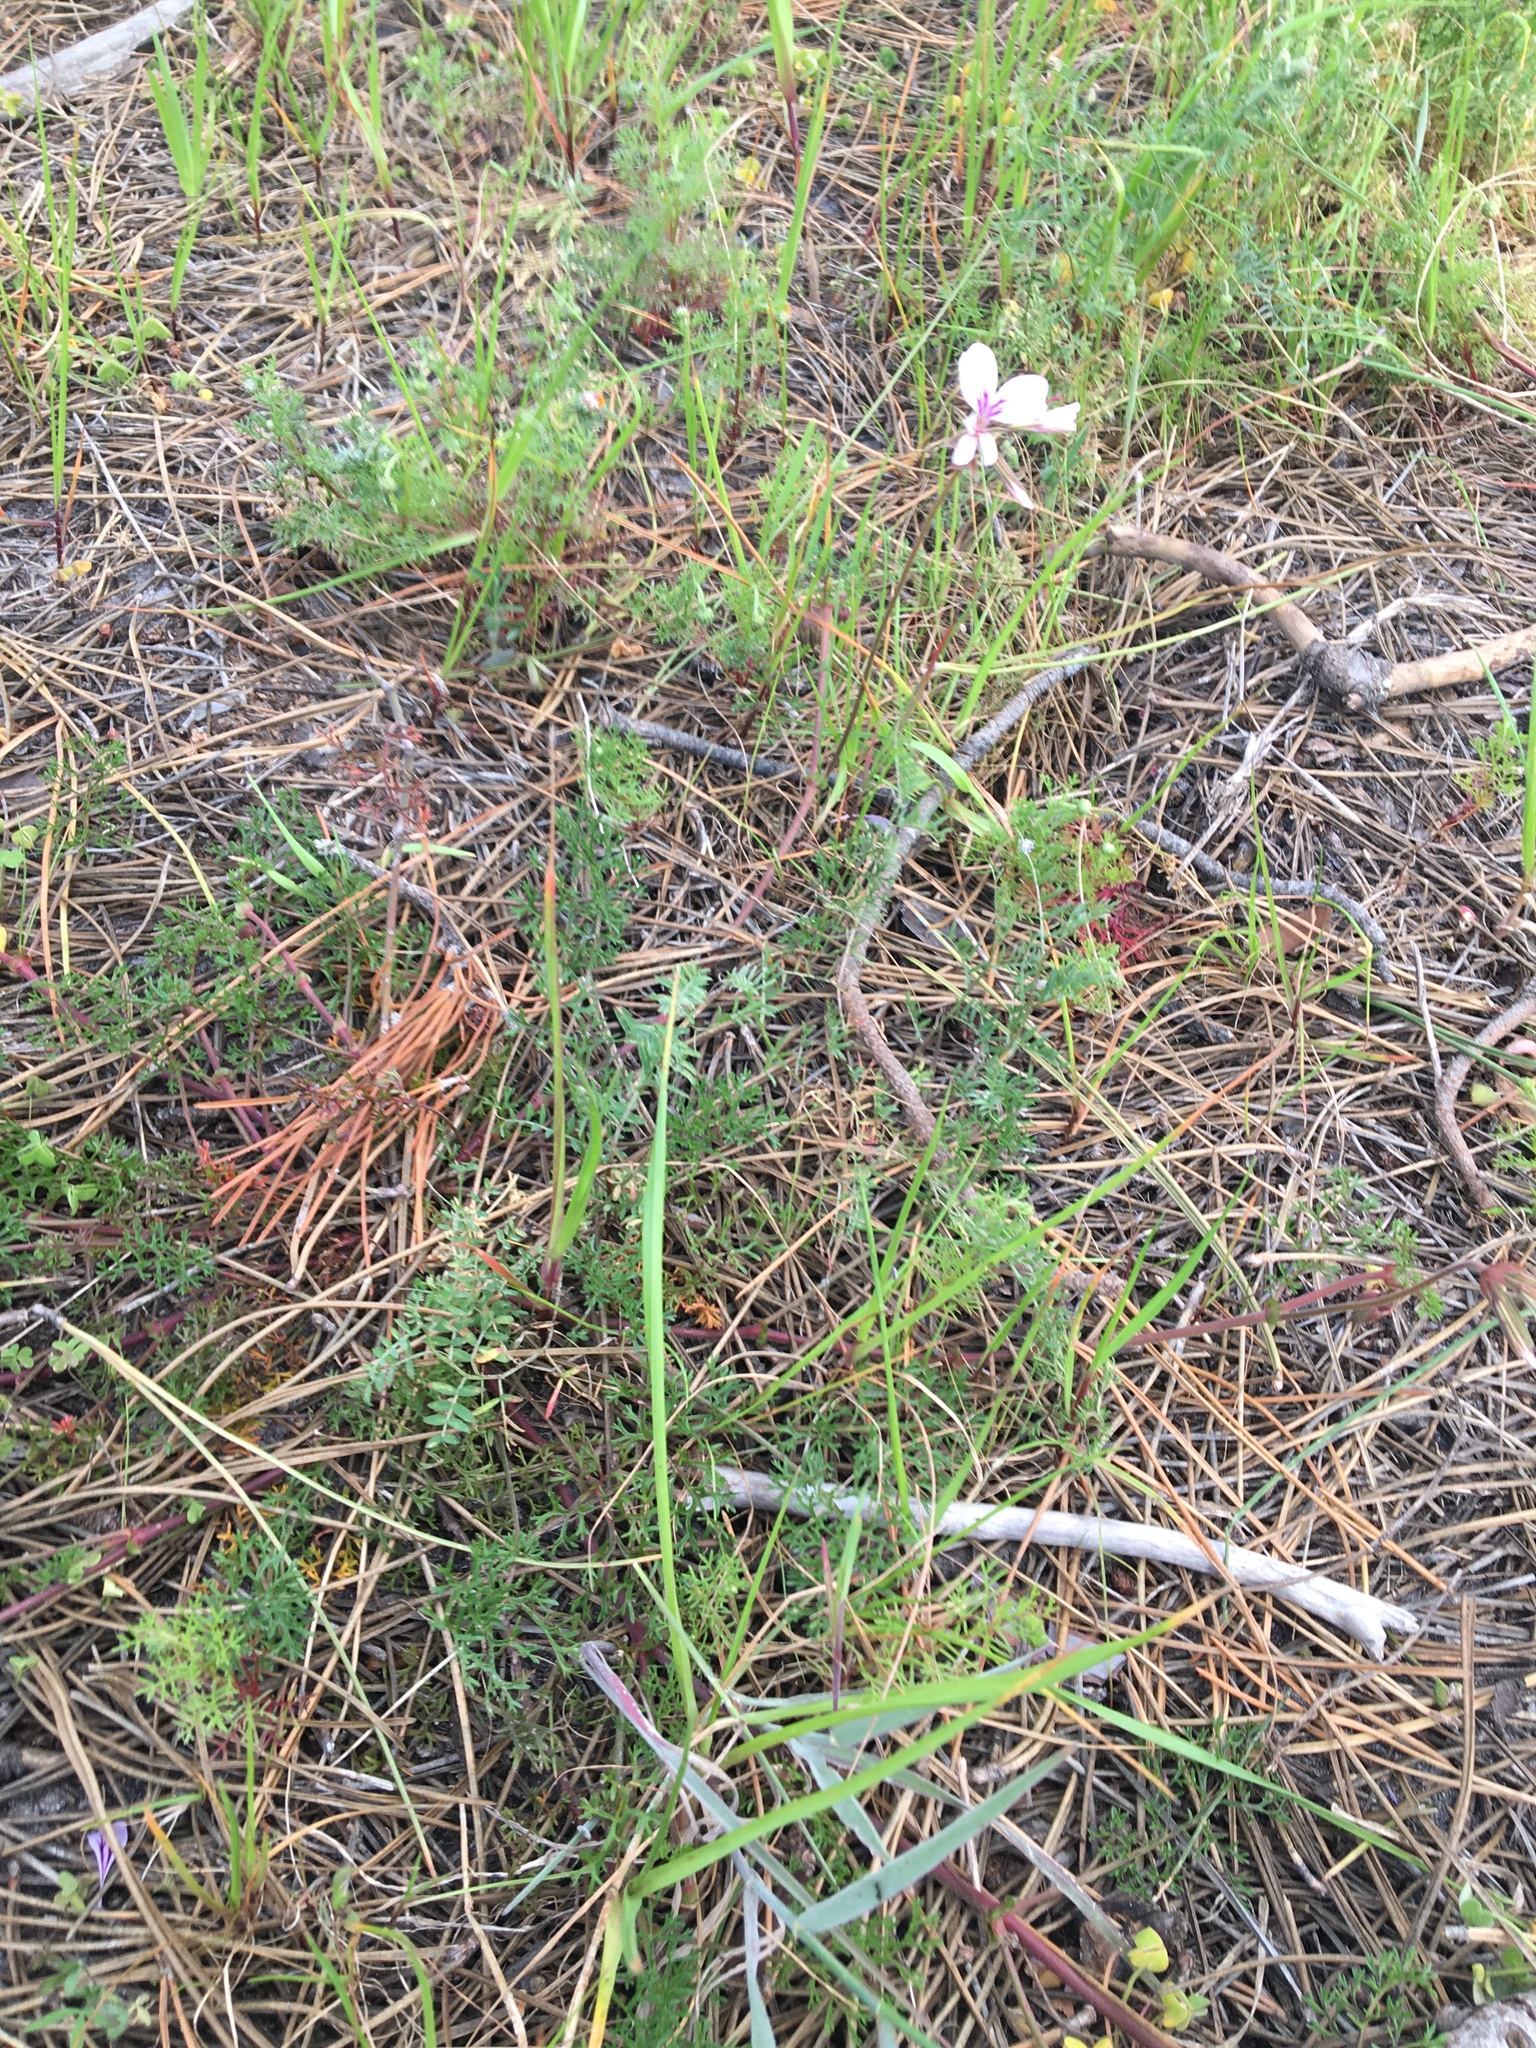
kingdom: Plantae
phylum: Tracheophyta
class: Magnoliopsida
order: Geraniales
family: Geraniaceae
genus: Pelargonium
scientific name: Pelargonium myrrhifolium
